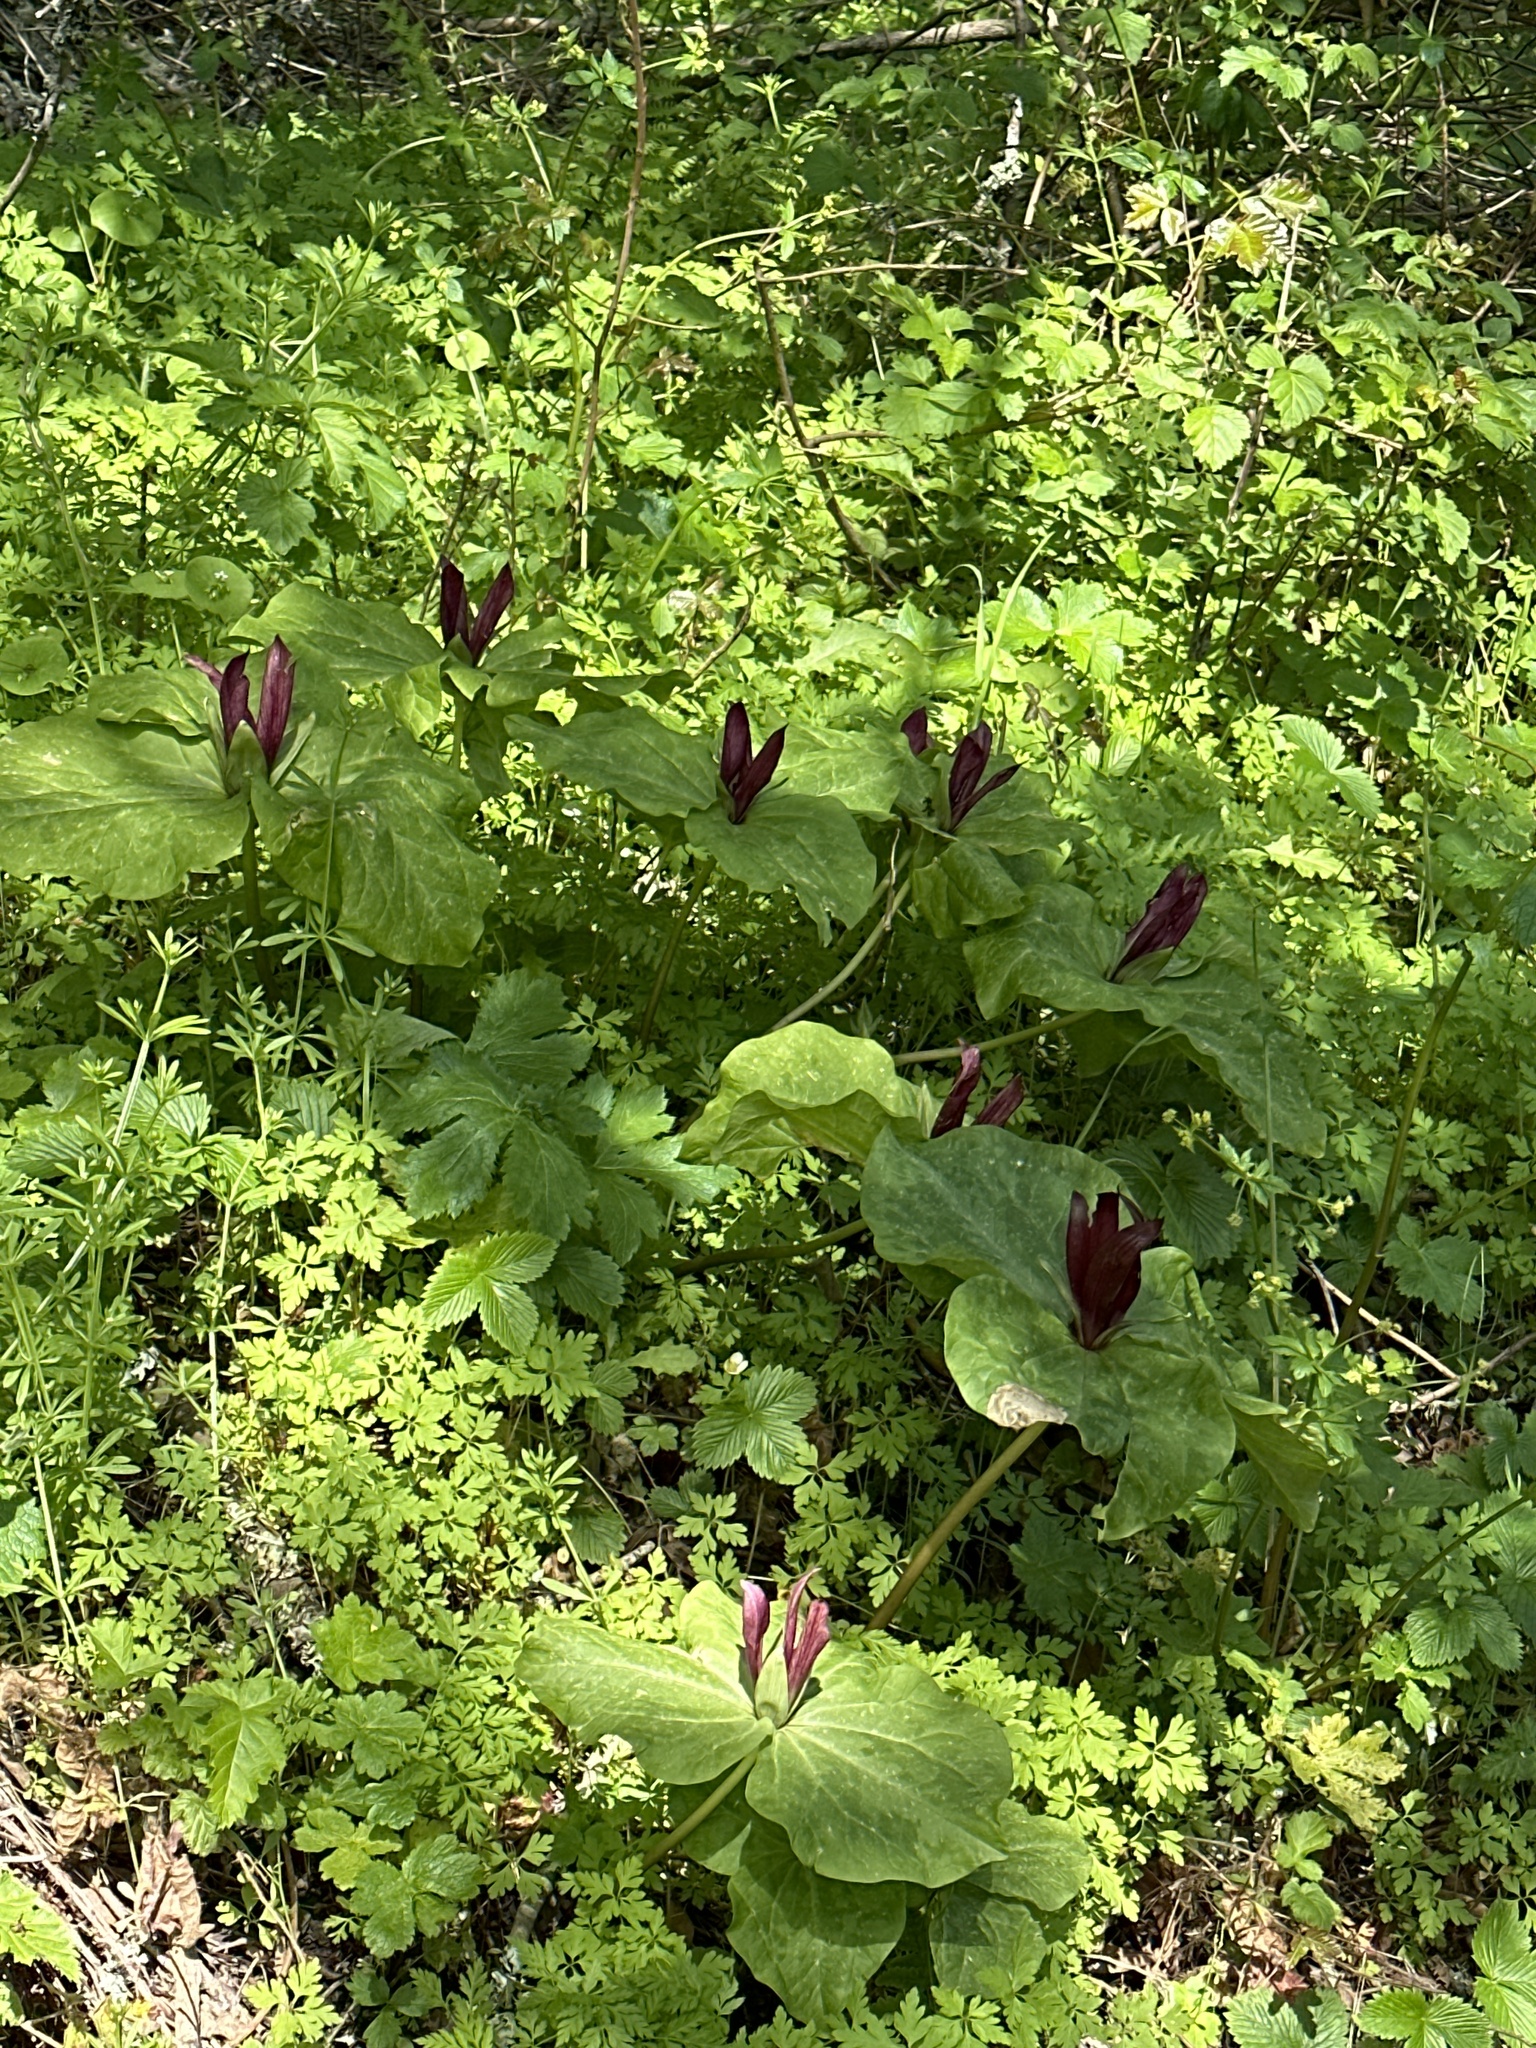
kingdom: Plantae
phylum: Tracheophyta
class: Liliopsida
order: Liliales
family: Melanthiaceae
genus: Trillium
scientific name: Trillium chloropetalum
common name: Giant trillium
